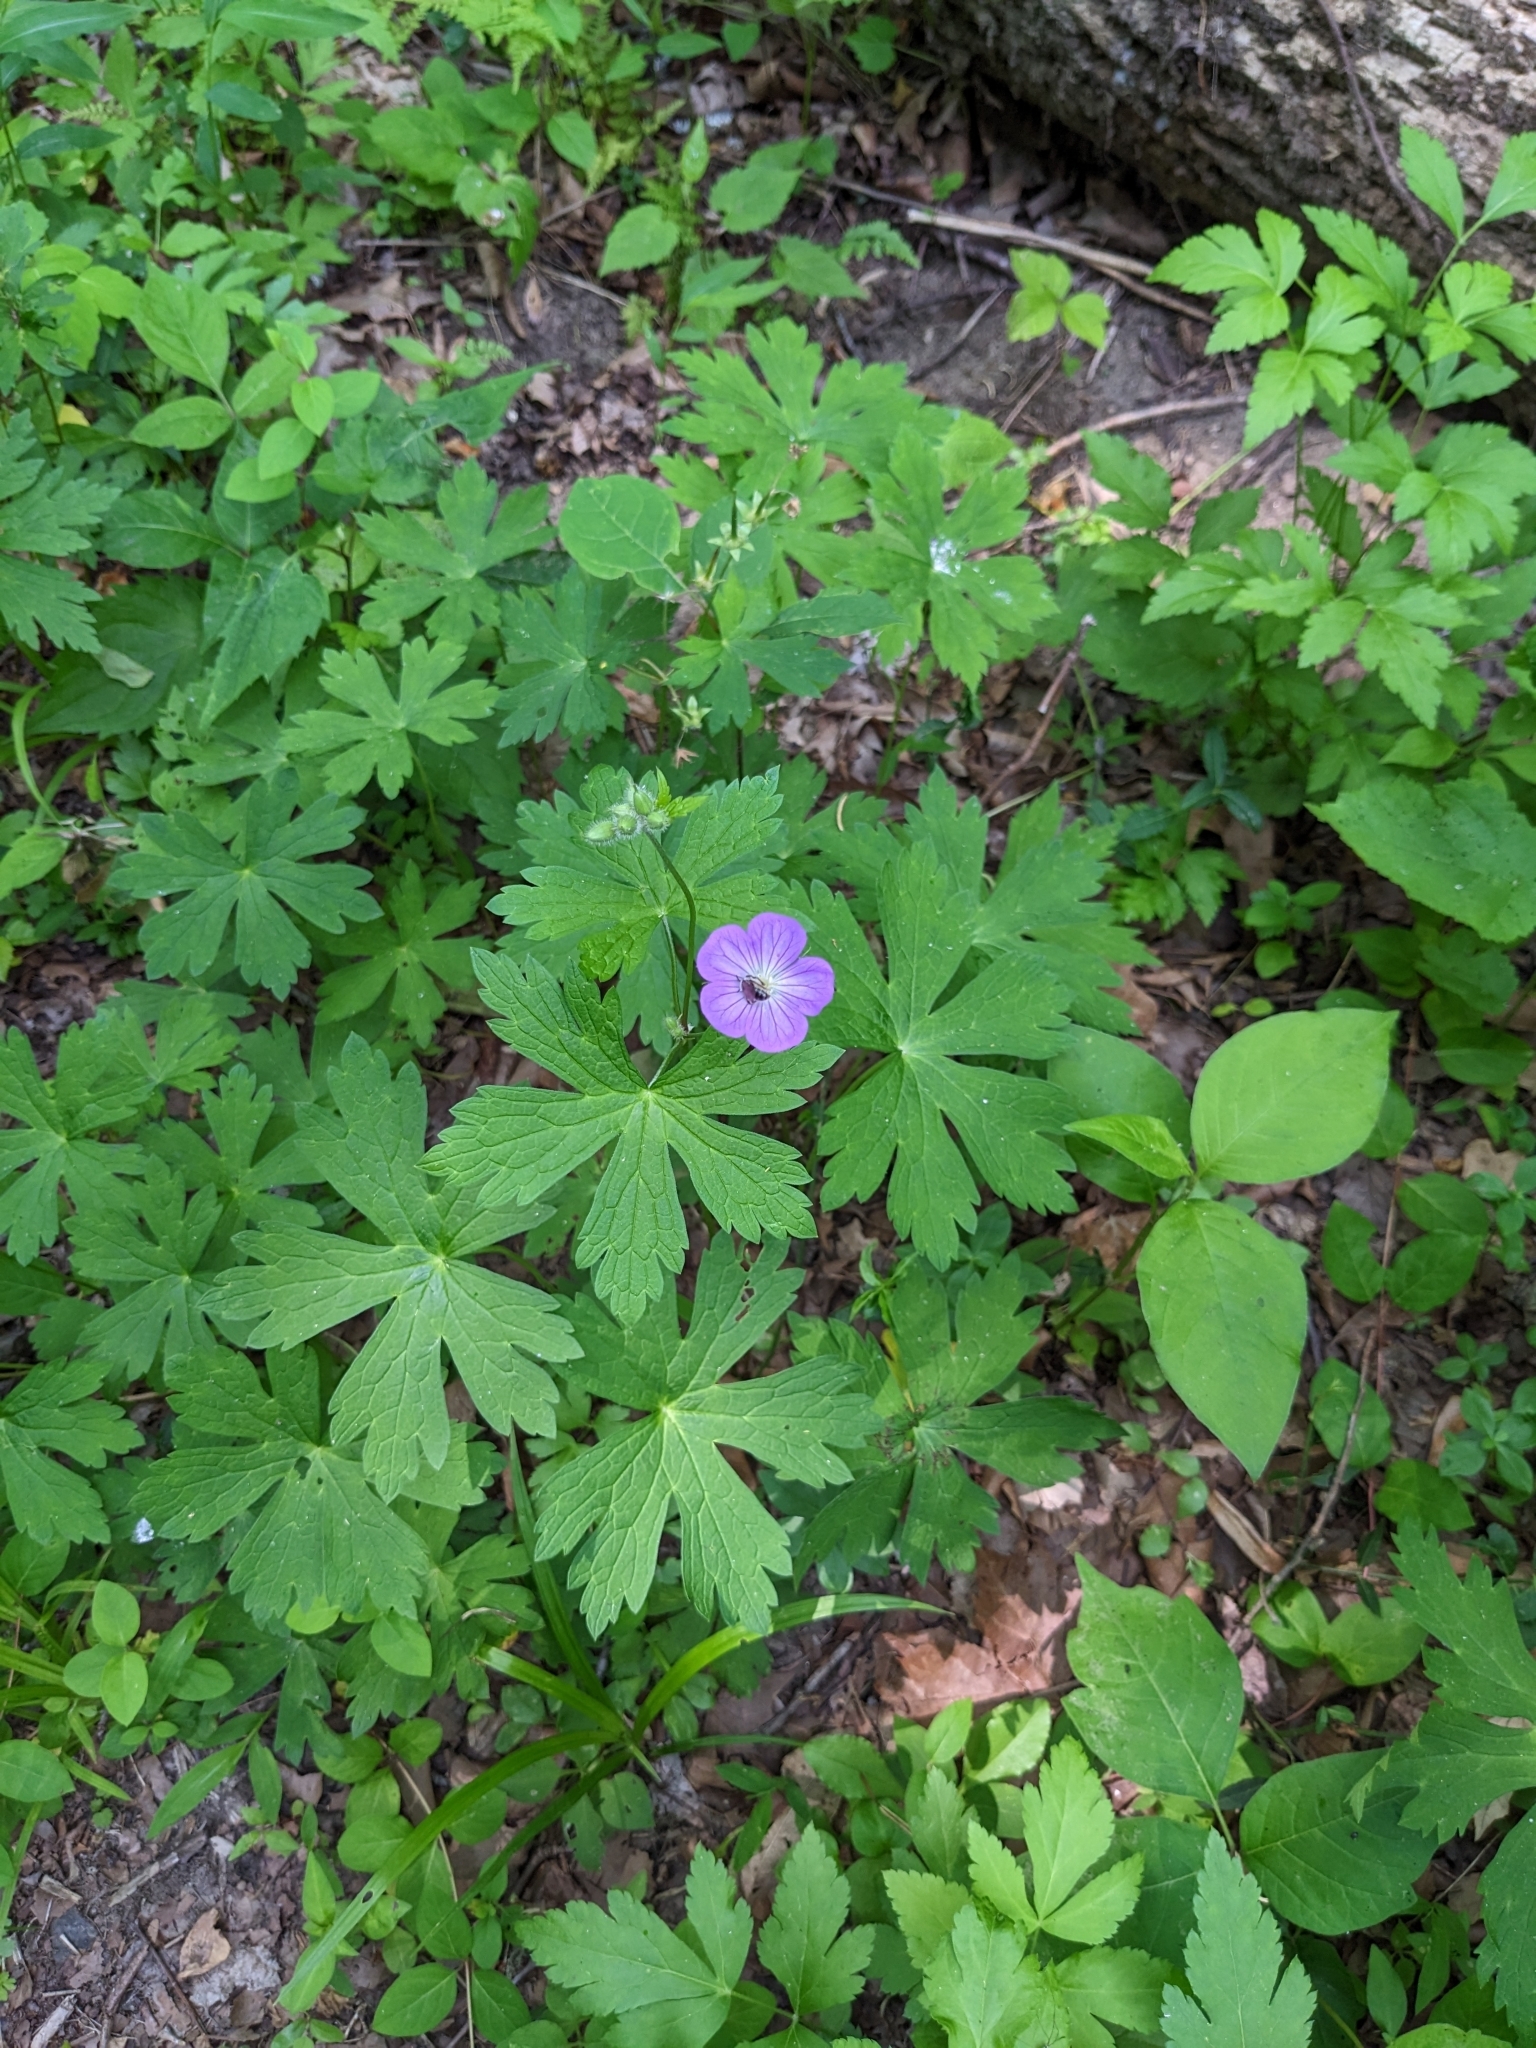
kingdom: Plantae
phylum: Tracheophyta
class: Magnoliopsida
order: Geraniales
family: Geraniaceae
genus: Geranium
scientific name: Geranium maculatum
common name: Spotted geranium
